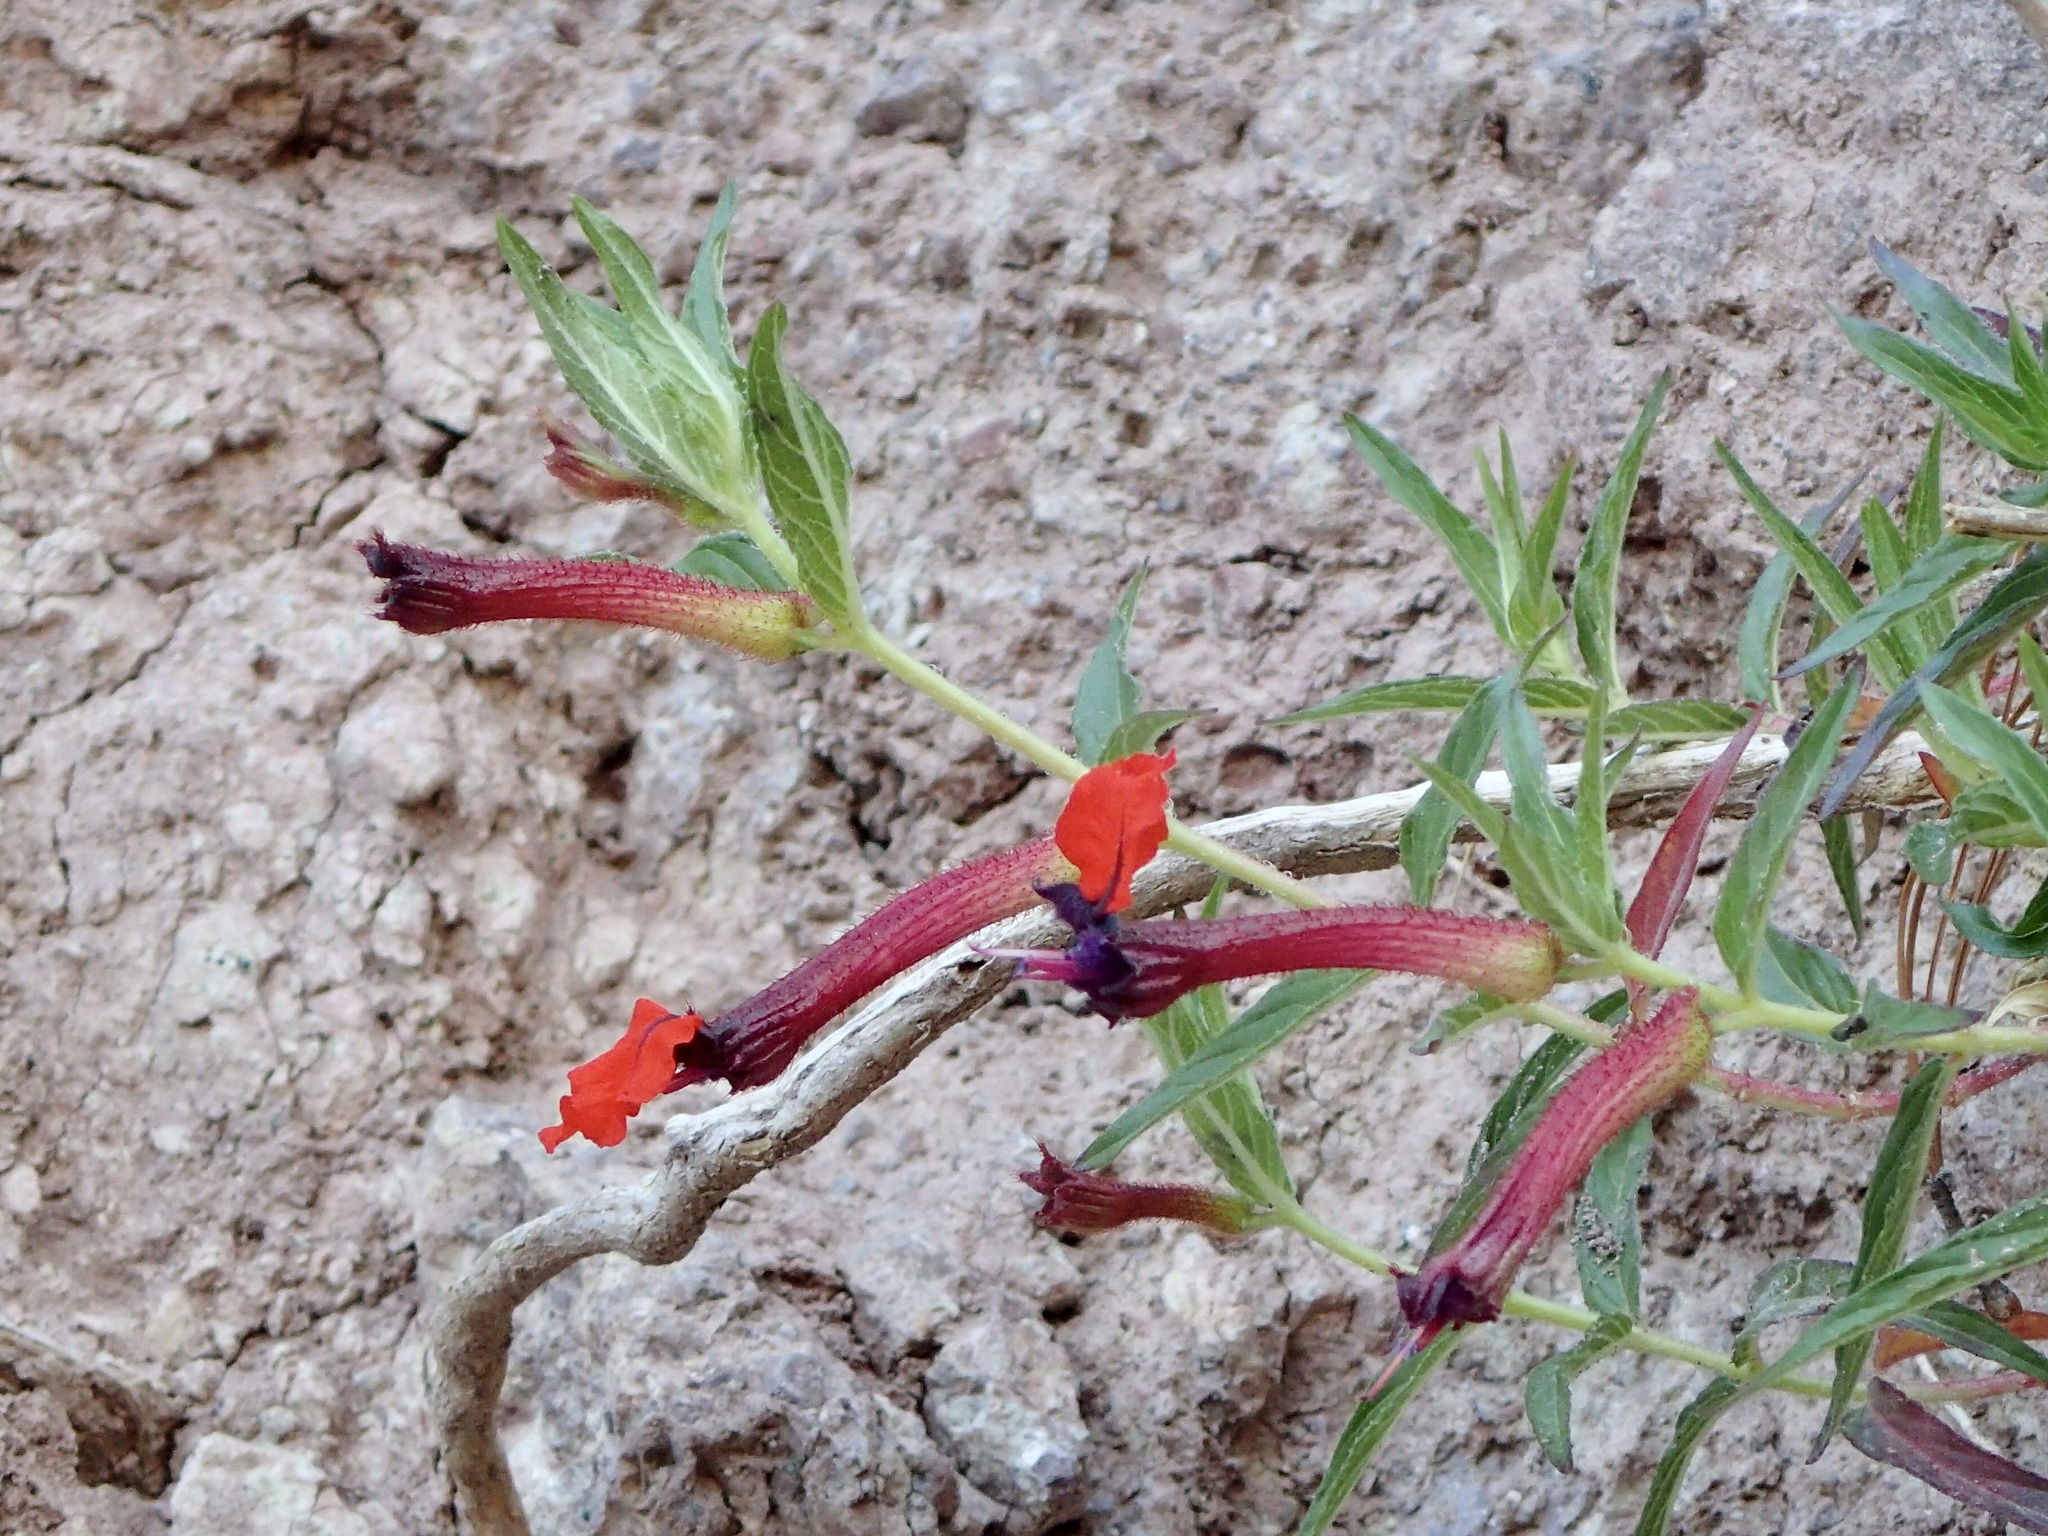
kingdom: Plantae
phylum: Tracheophyta
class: Magnoliopsida
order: Myrtales
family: Lythraceae
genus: Cuphea
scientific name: Cuphea llavea
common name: Tiny-mice
